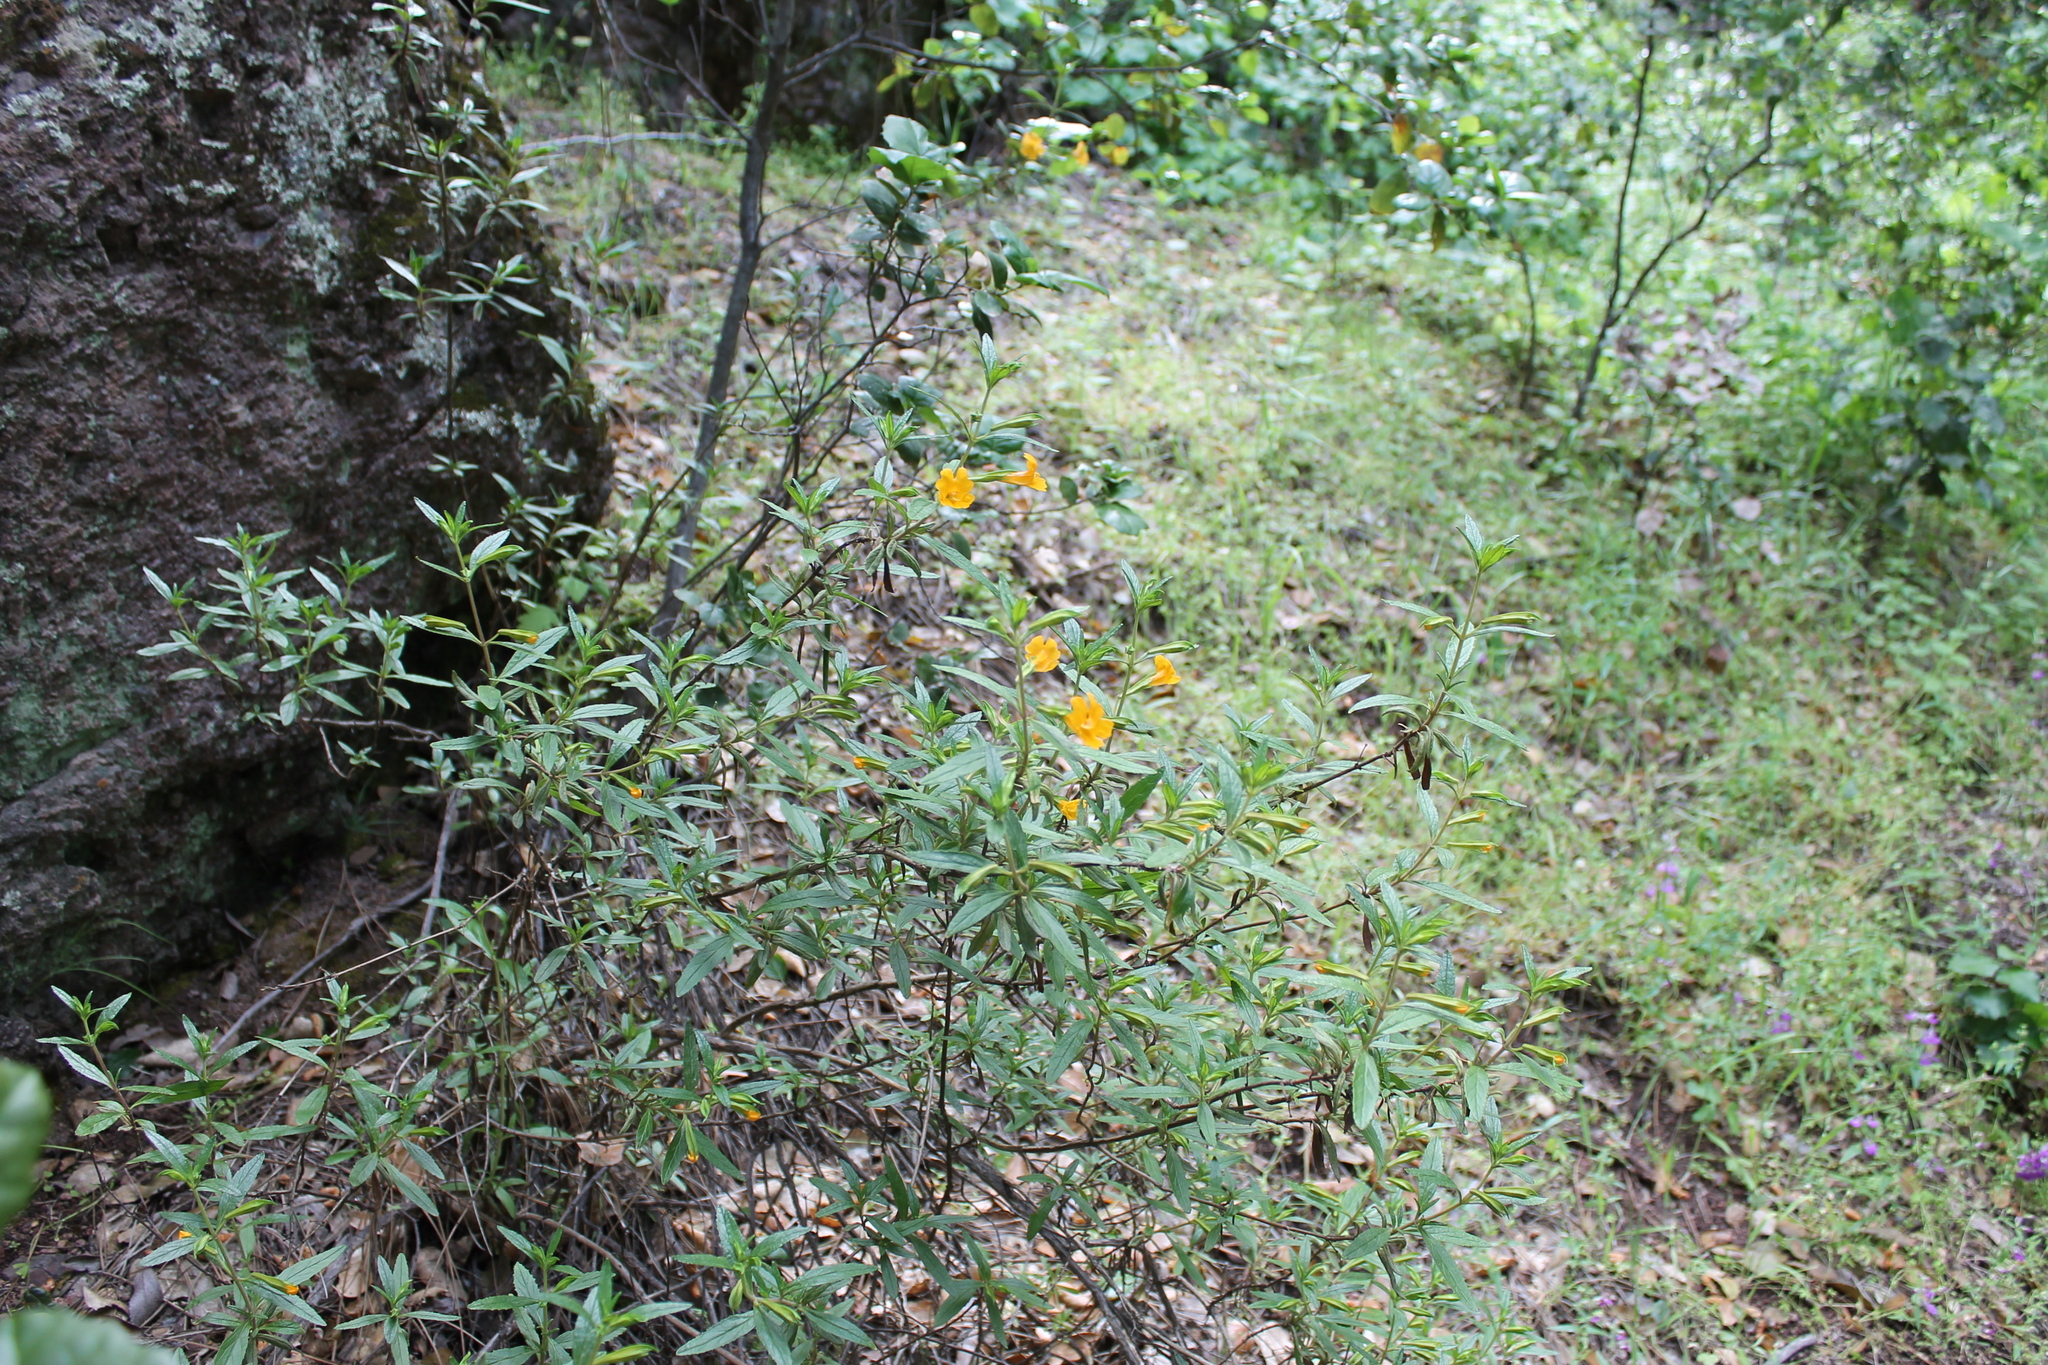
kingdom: Plantae
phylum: Tracheophyta
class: Magnoliopsida
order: Lamiales
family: Phrymaceae
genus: Diplacus
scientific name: Diplacus aurantiacus
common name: Bush monkey-flower
